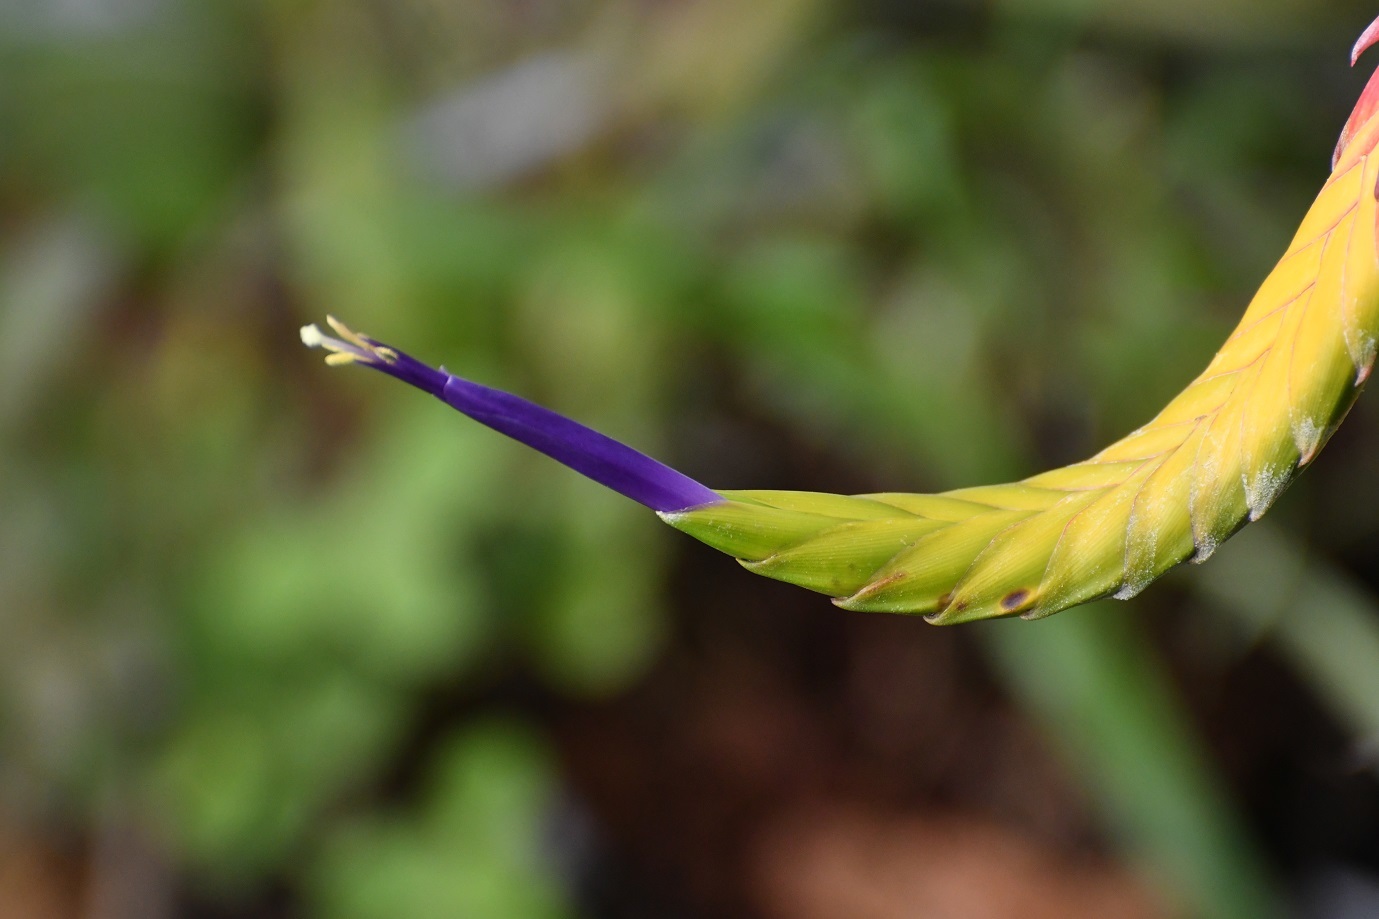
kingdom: Plantae
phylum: Tracheophyta
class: Liliopsida
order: Poales
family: Bromeliaceae
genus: Tillandsia
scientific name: Tillandsia tricolor
